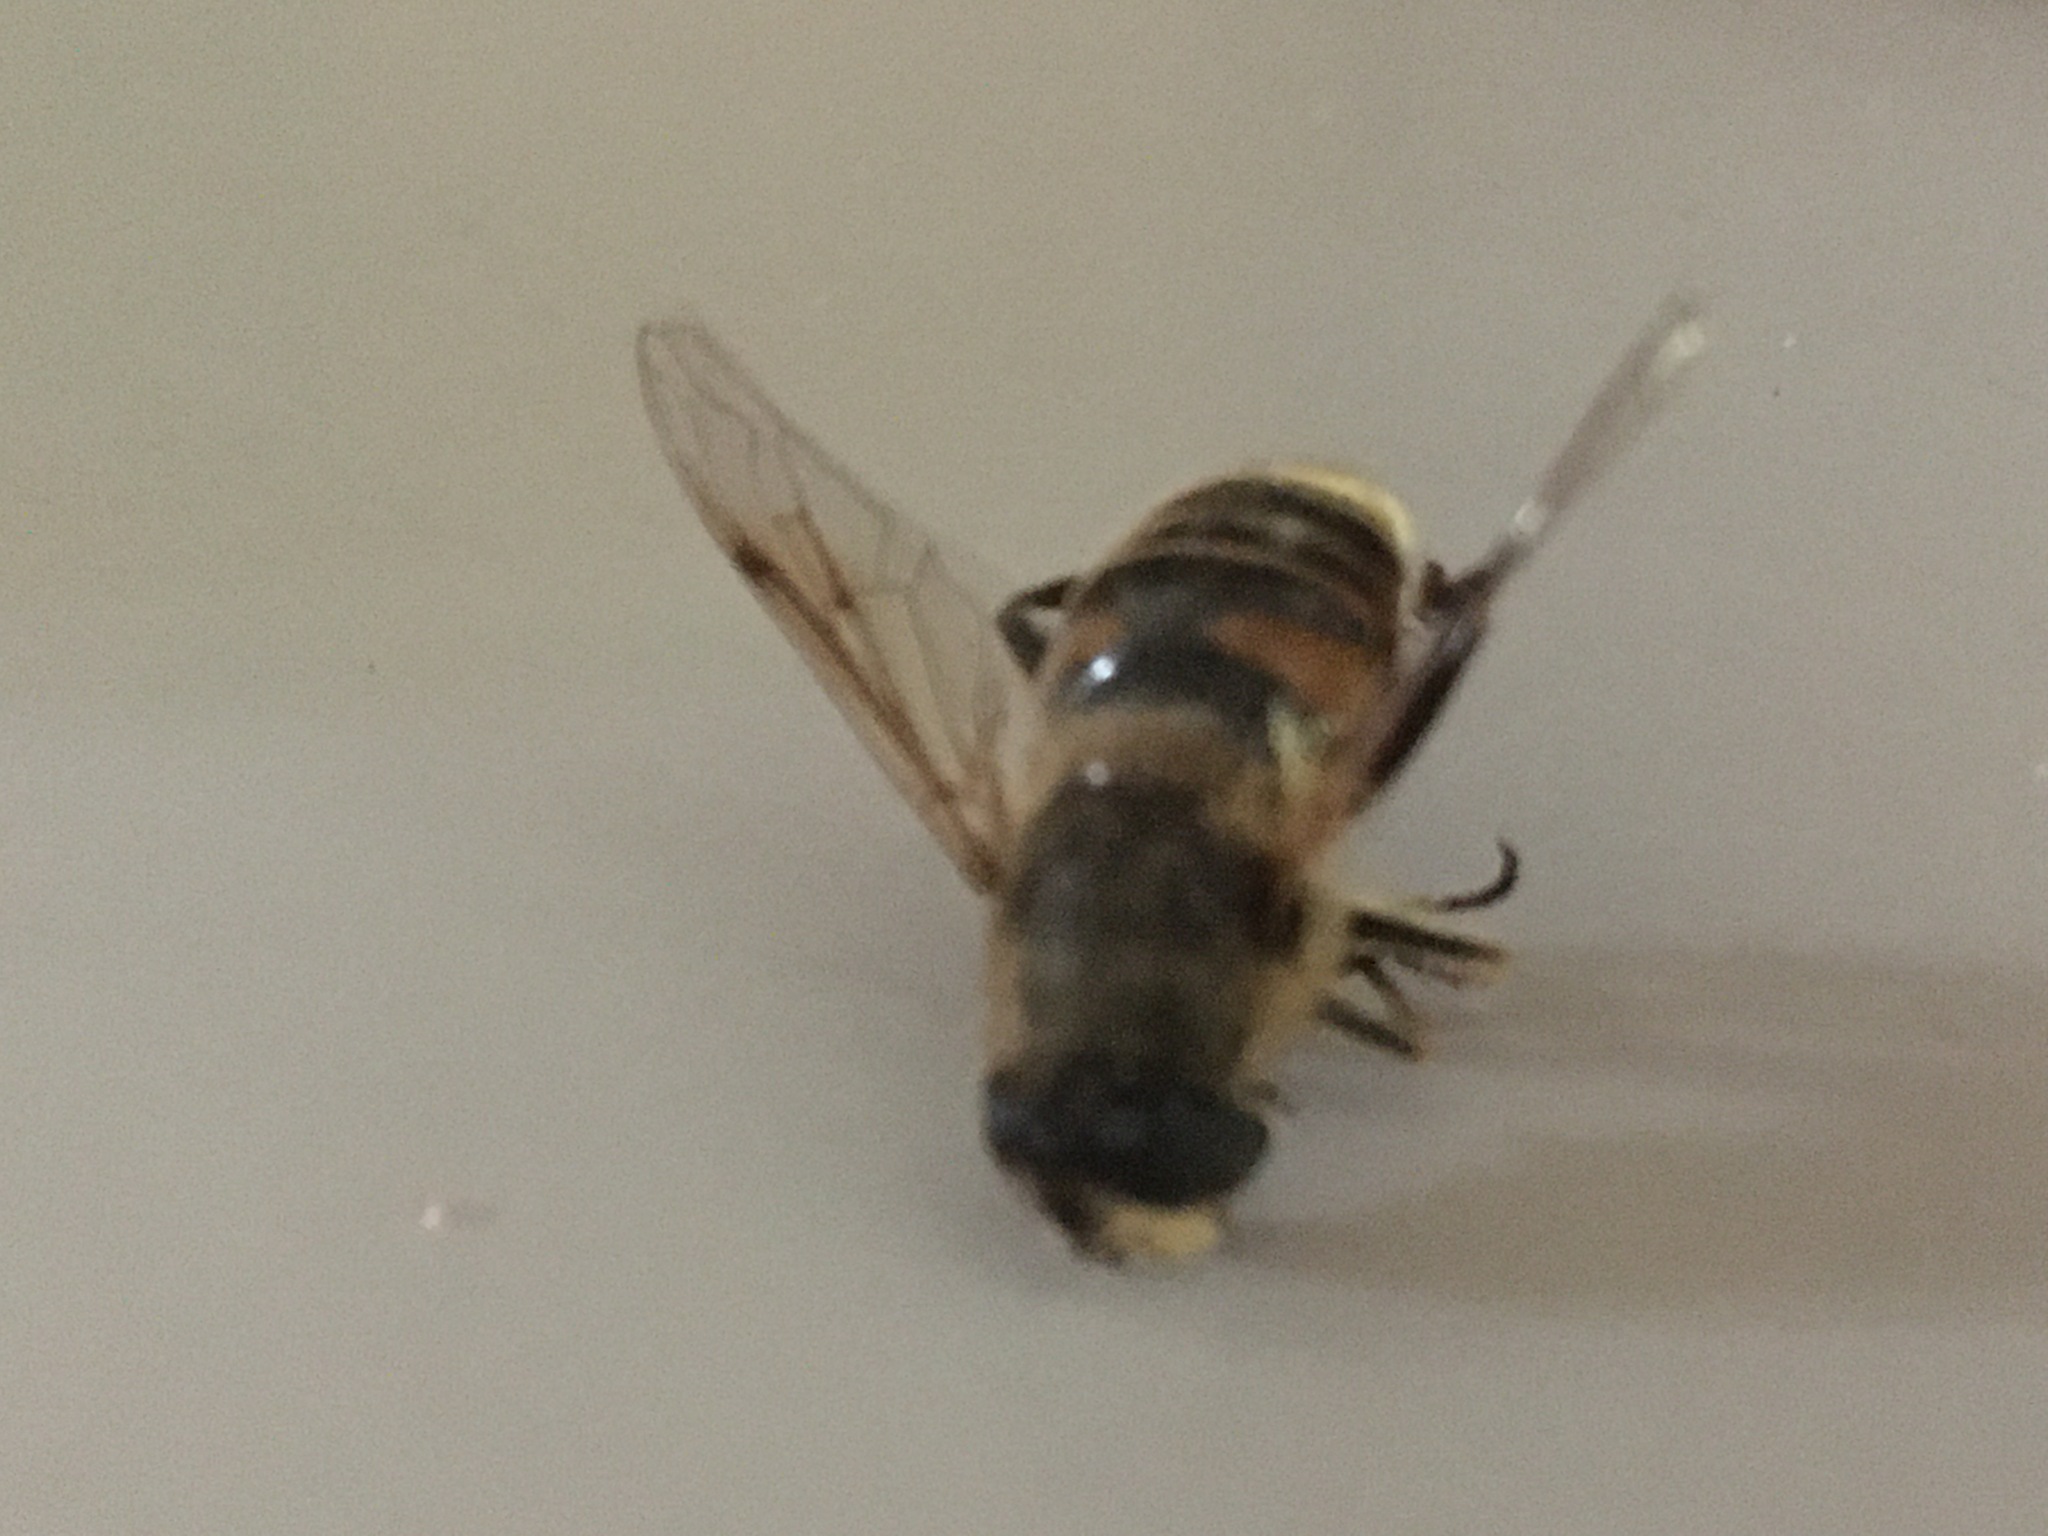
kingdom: Animalia
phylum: Arthropoda
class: Insecta
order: Diptera
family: Syrphidae
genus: Eristalis
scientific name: Eristalis tenax
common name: Drone fly
